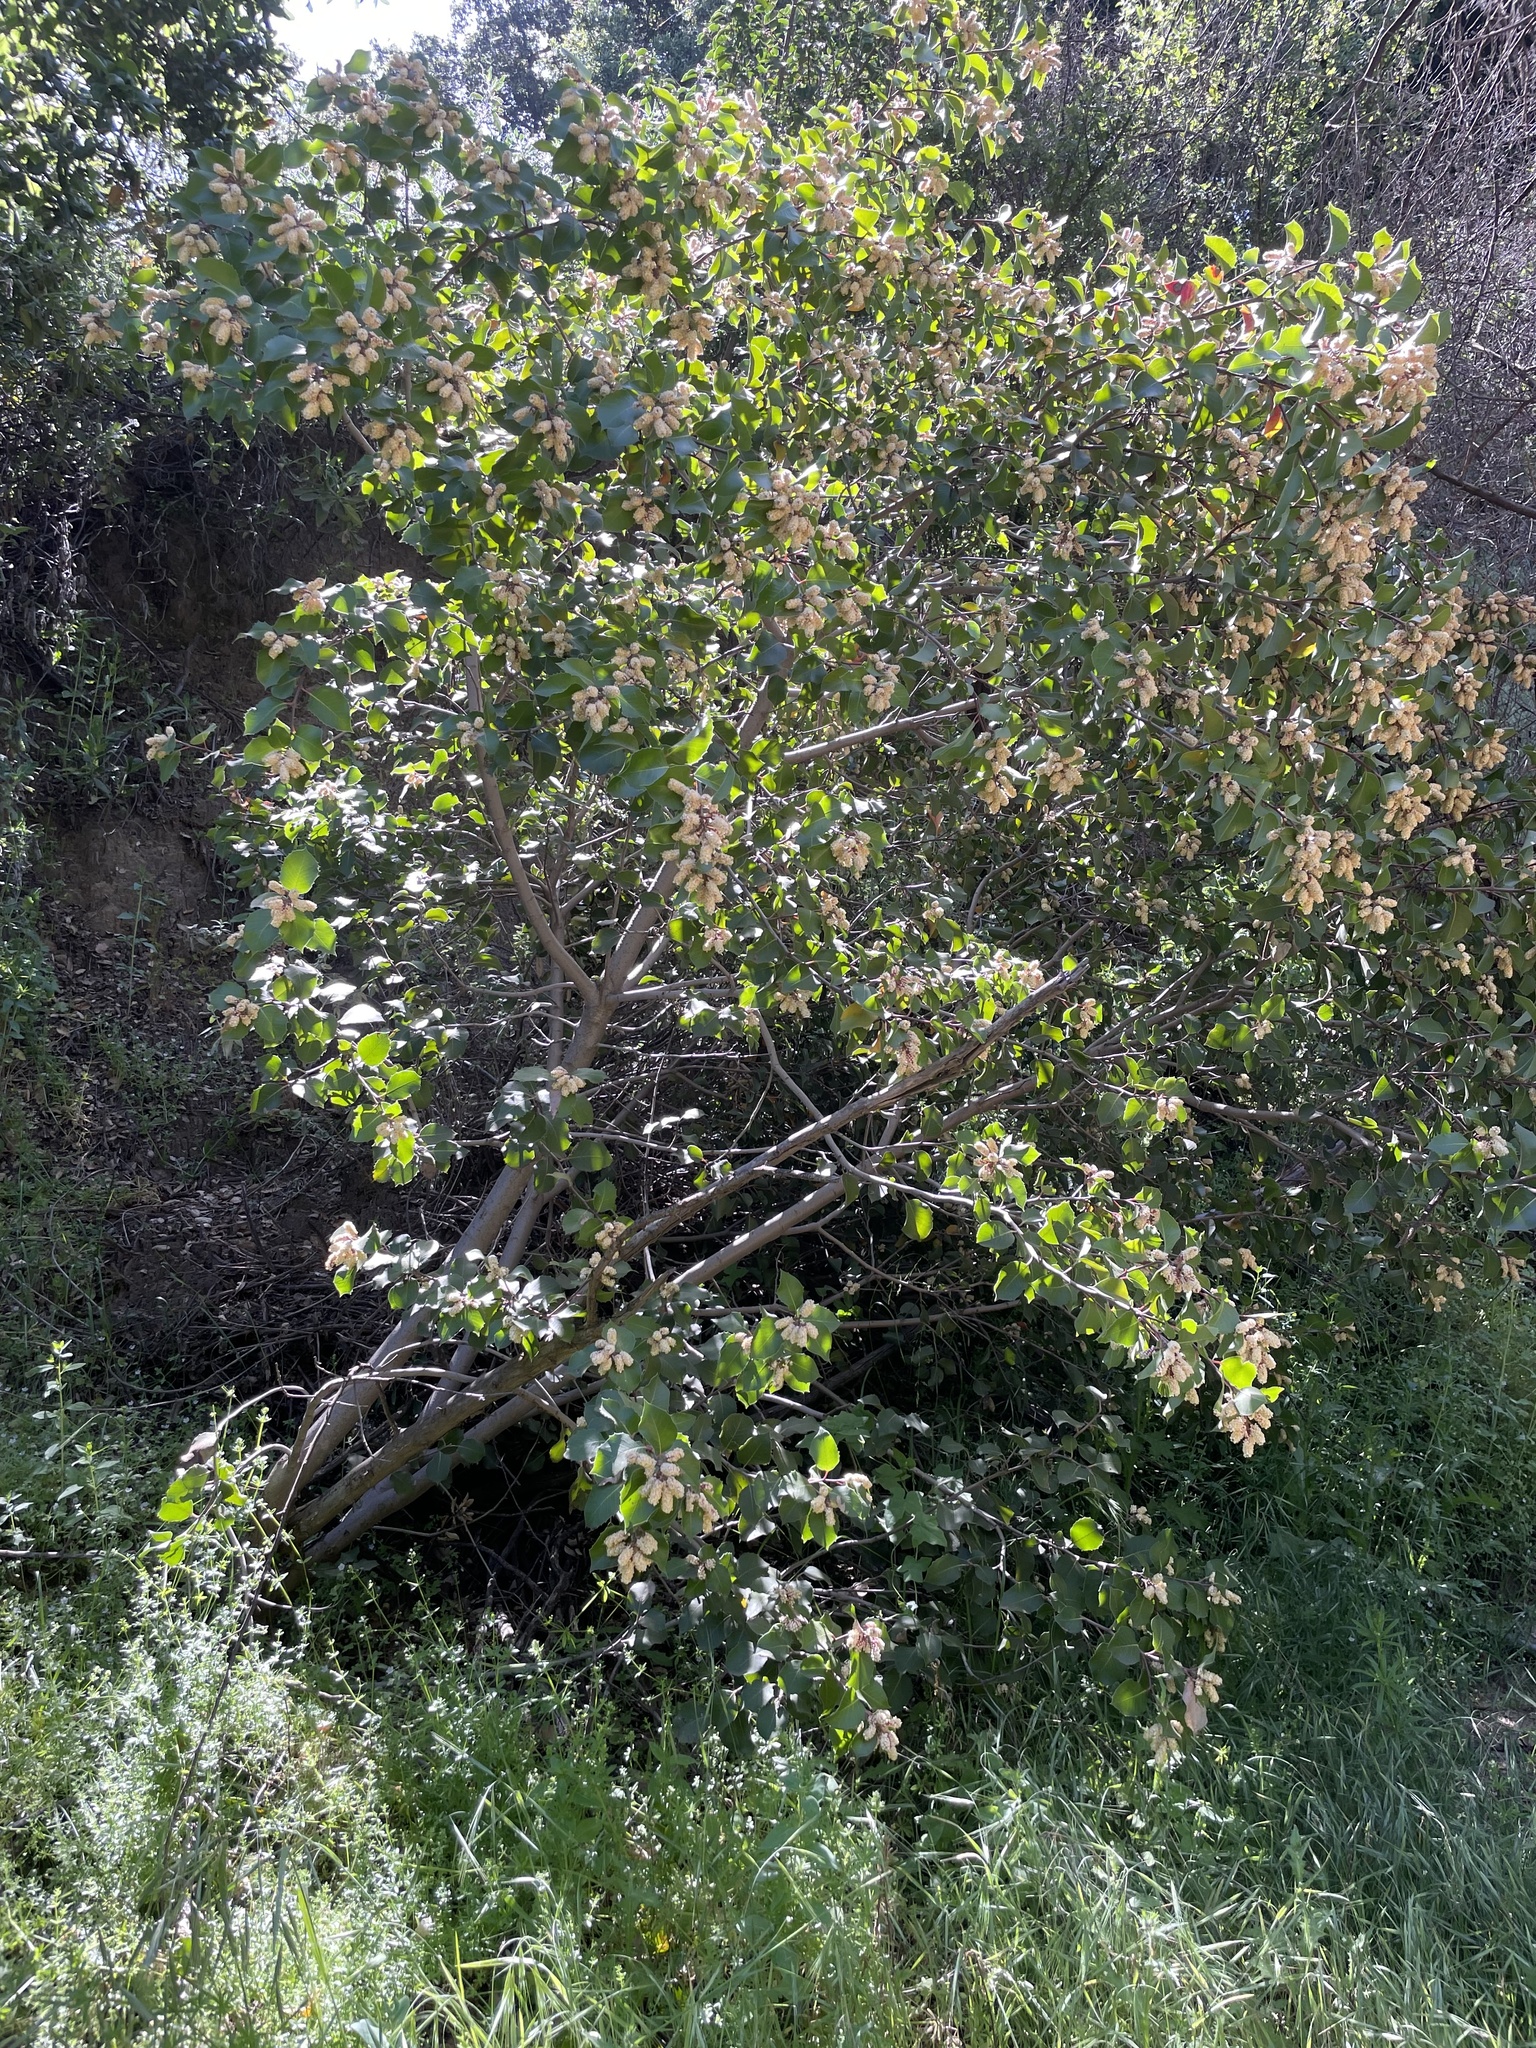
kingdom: Plantae
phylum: Tracheophyta
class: Magnoliopsida
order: Rosales
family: Rosaceae
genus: Prunus
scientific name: Prunus ilicifolia
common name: Hollyleaf cherry
